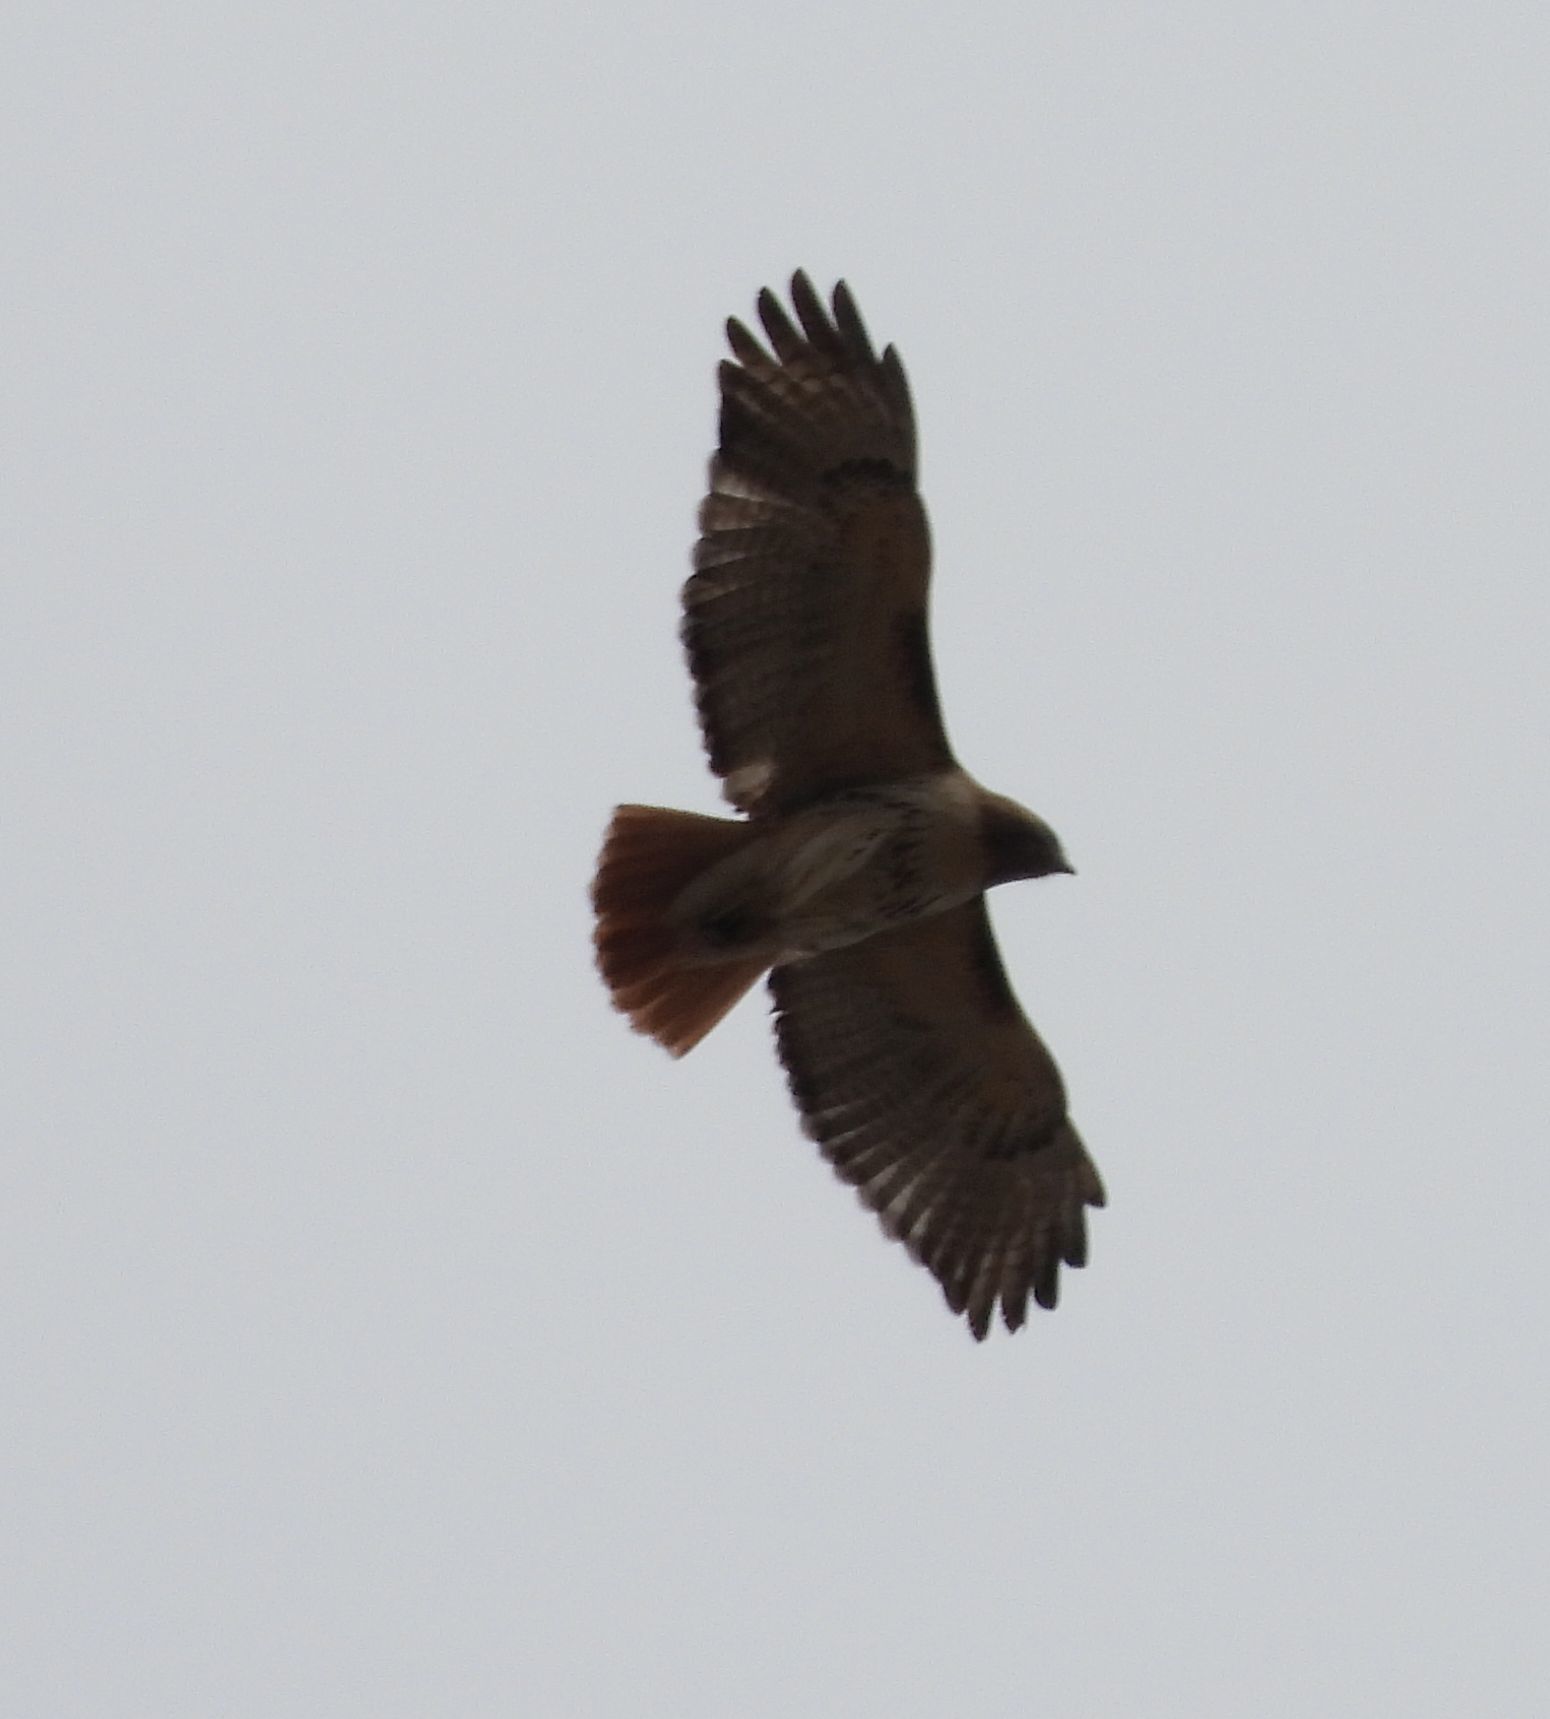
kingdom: Animalia
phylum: Chordata
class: Aves
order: Accipitriformes
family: Accipitridae
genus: Buteo
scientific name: Buteo jamaicensis
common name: Red-tailed hawk
